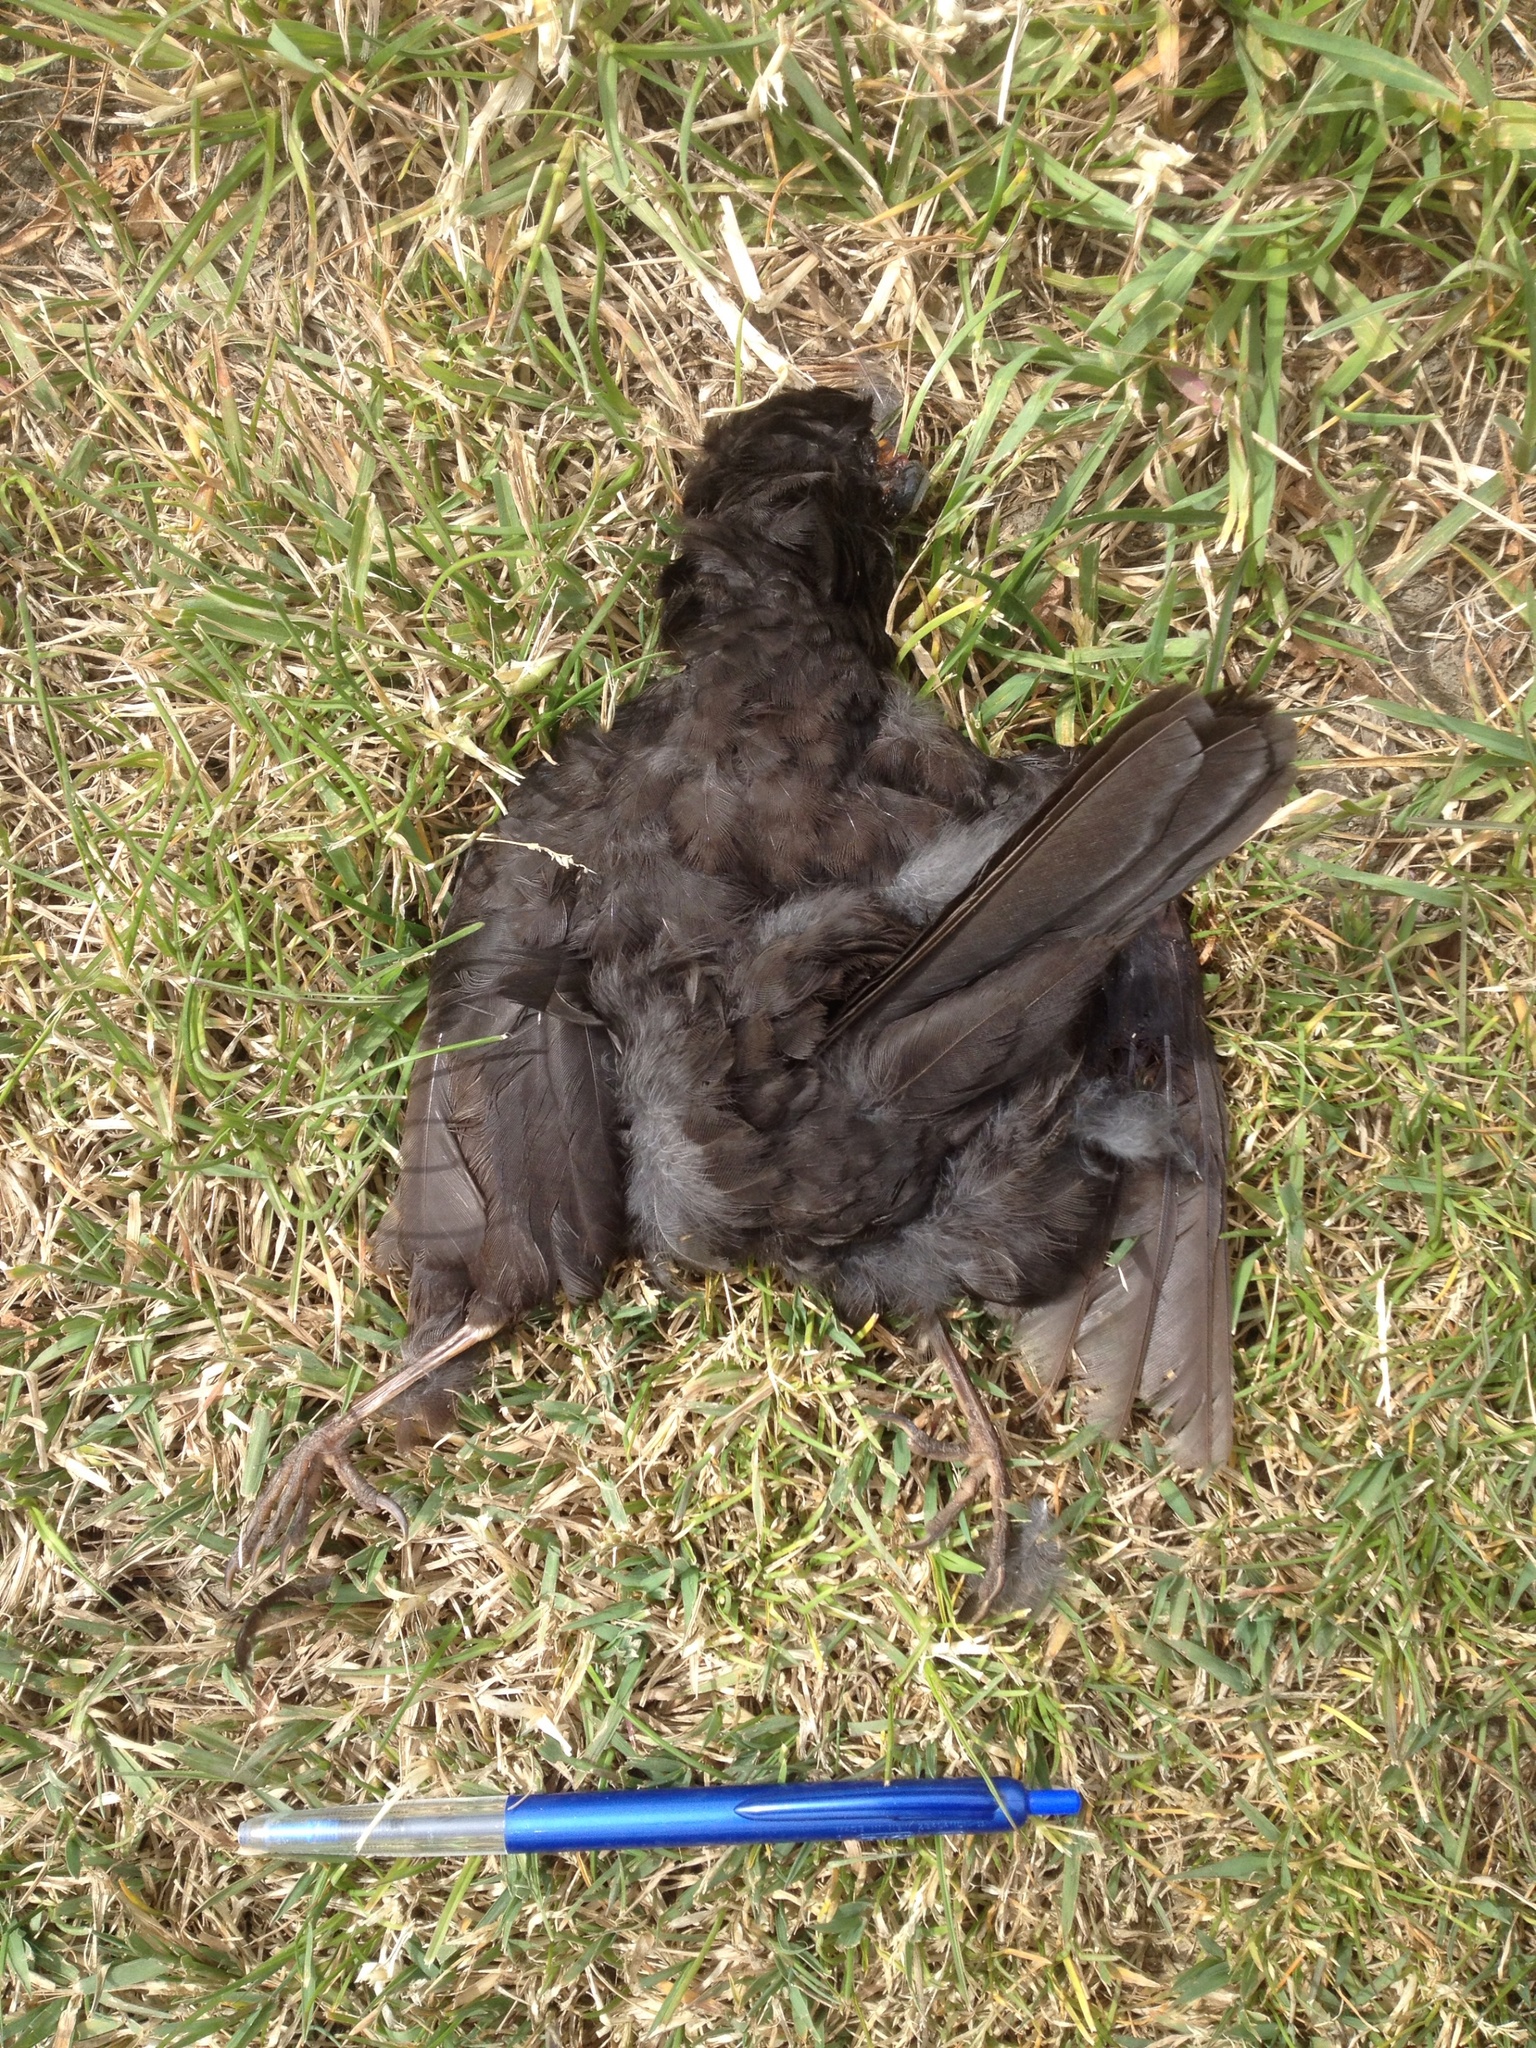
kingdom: Animalia
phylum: Chordata
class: Aves
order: Passeriformes
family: Turdidae
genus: Turdus
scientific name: Turdus merula
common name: Common blackbird
